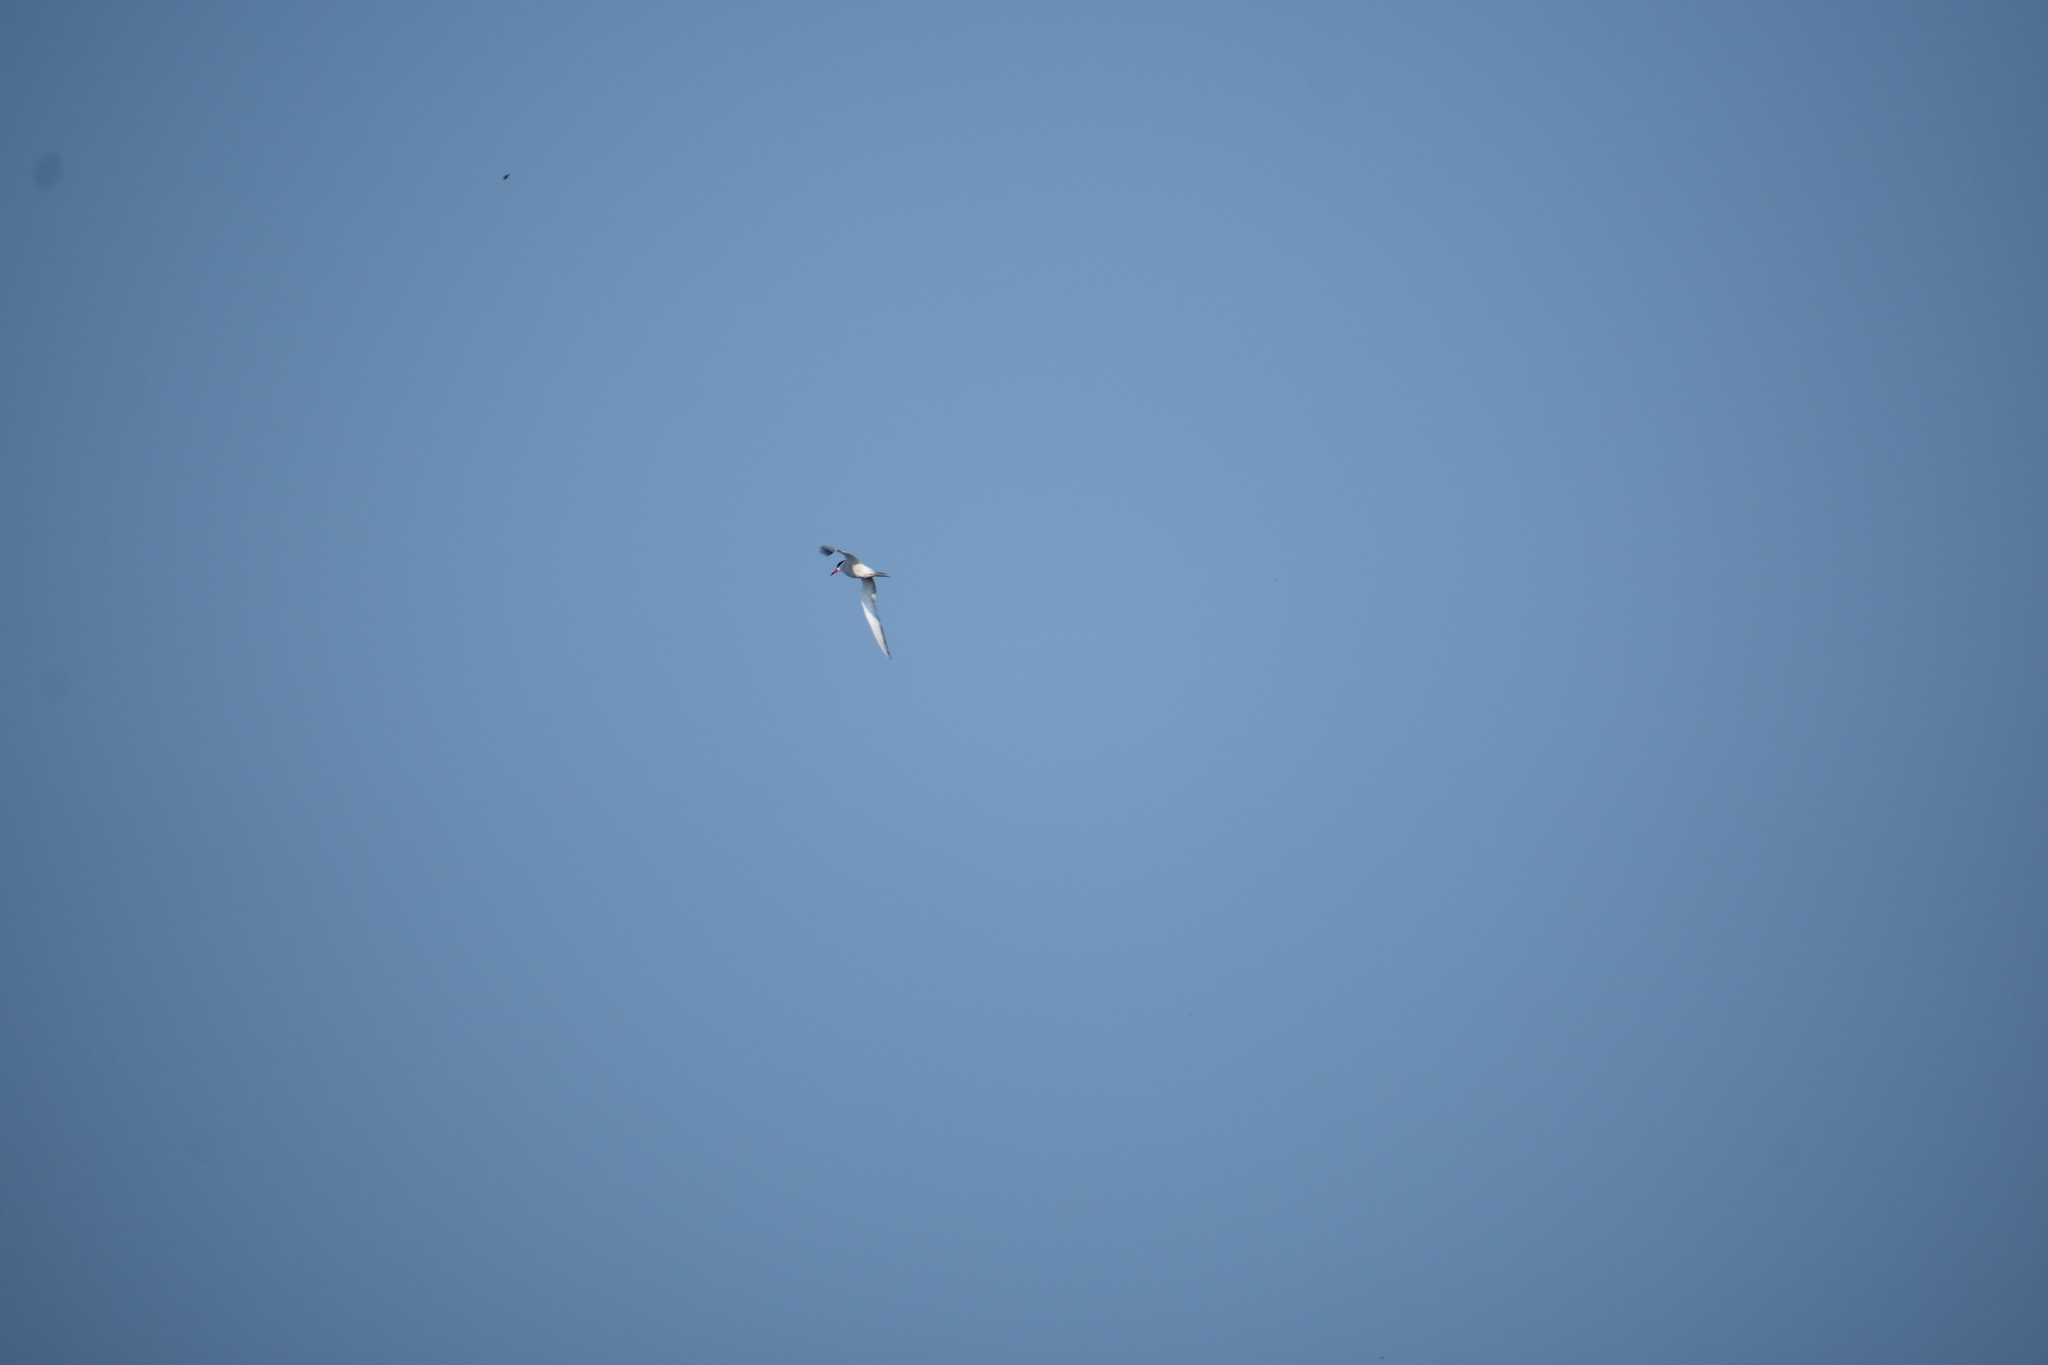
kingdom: Animalia
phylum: Chordata
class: Aves
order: Charadriiformes
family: Laridae
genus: Sterna
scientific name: Sterna hirundo
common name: Common tern
